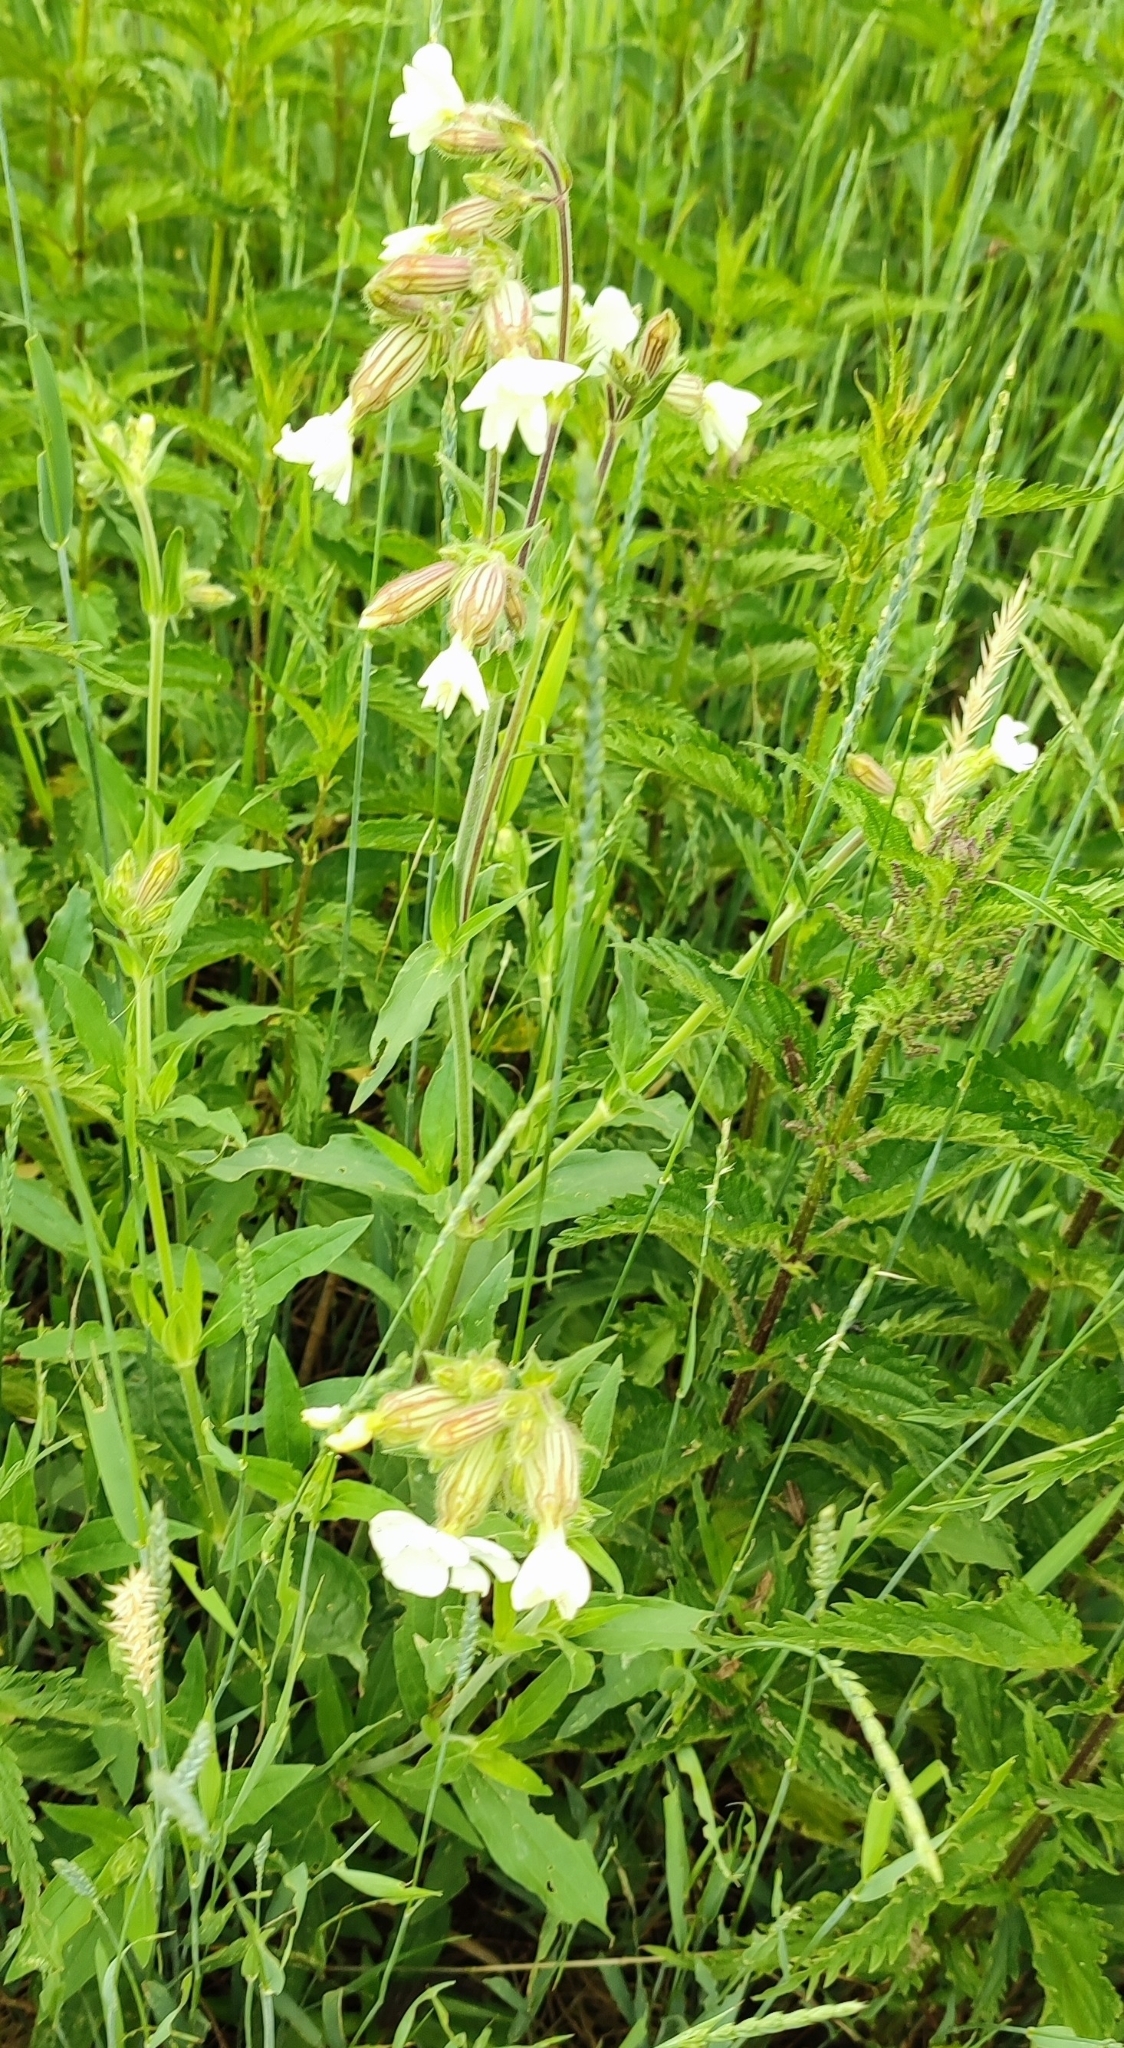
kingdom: Plantae
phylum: Tracheophyta
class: Magnoliopsida
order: Caryophyllales
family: Caryophyllaceae
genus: Silene
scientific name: Silene latifolia
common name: White campion
